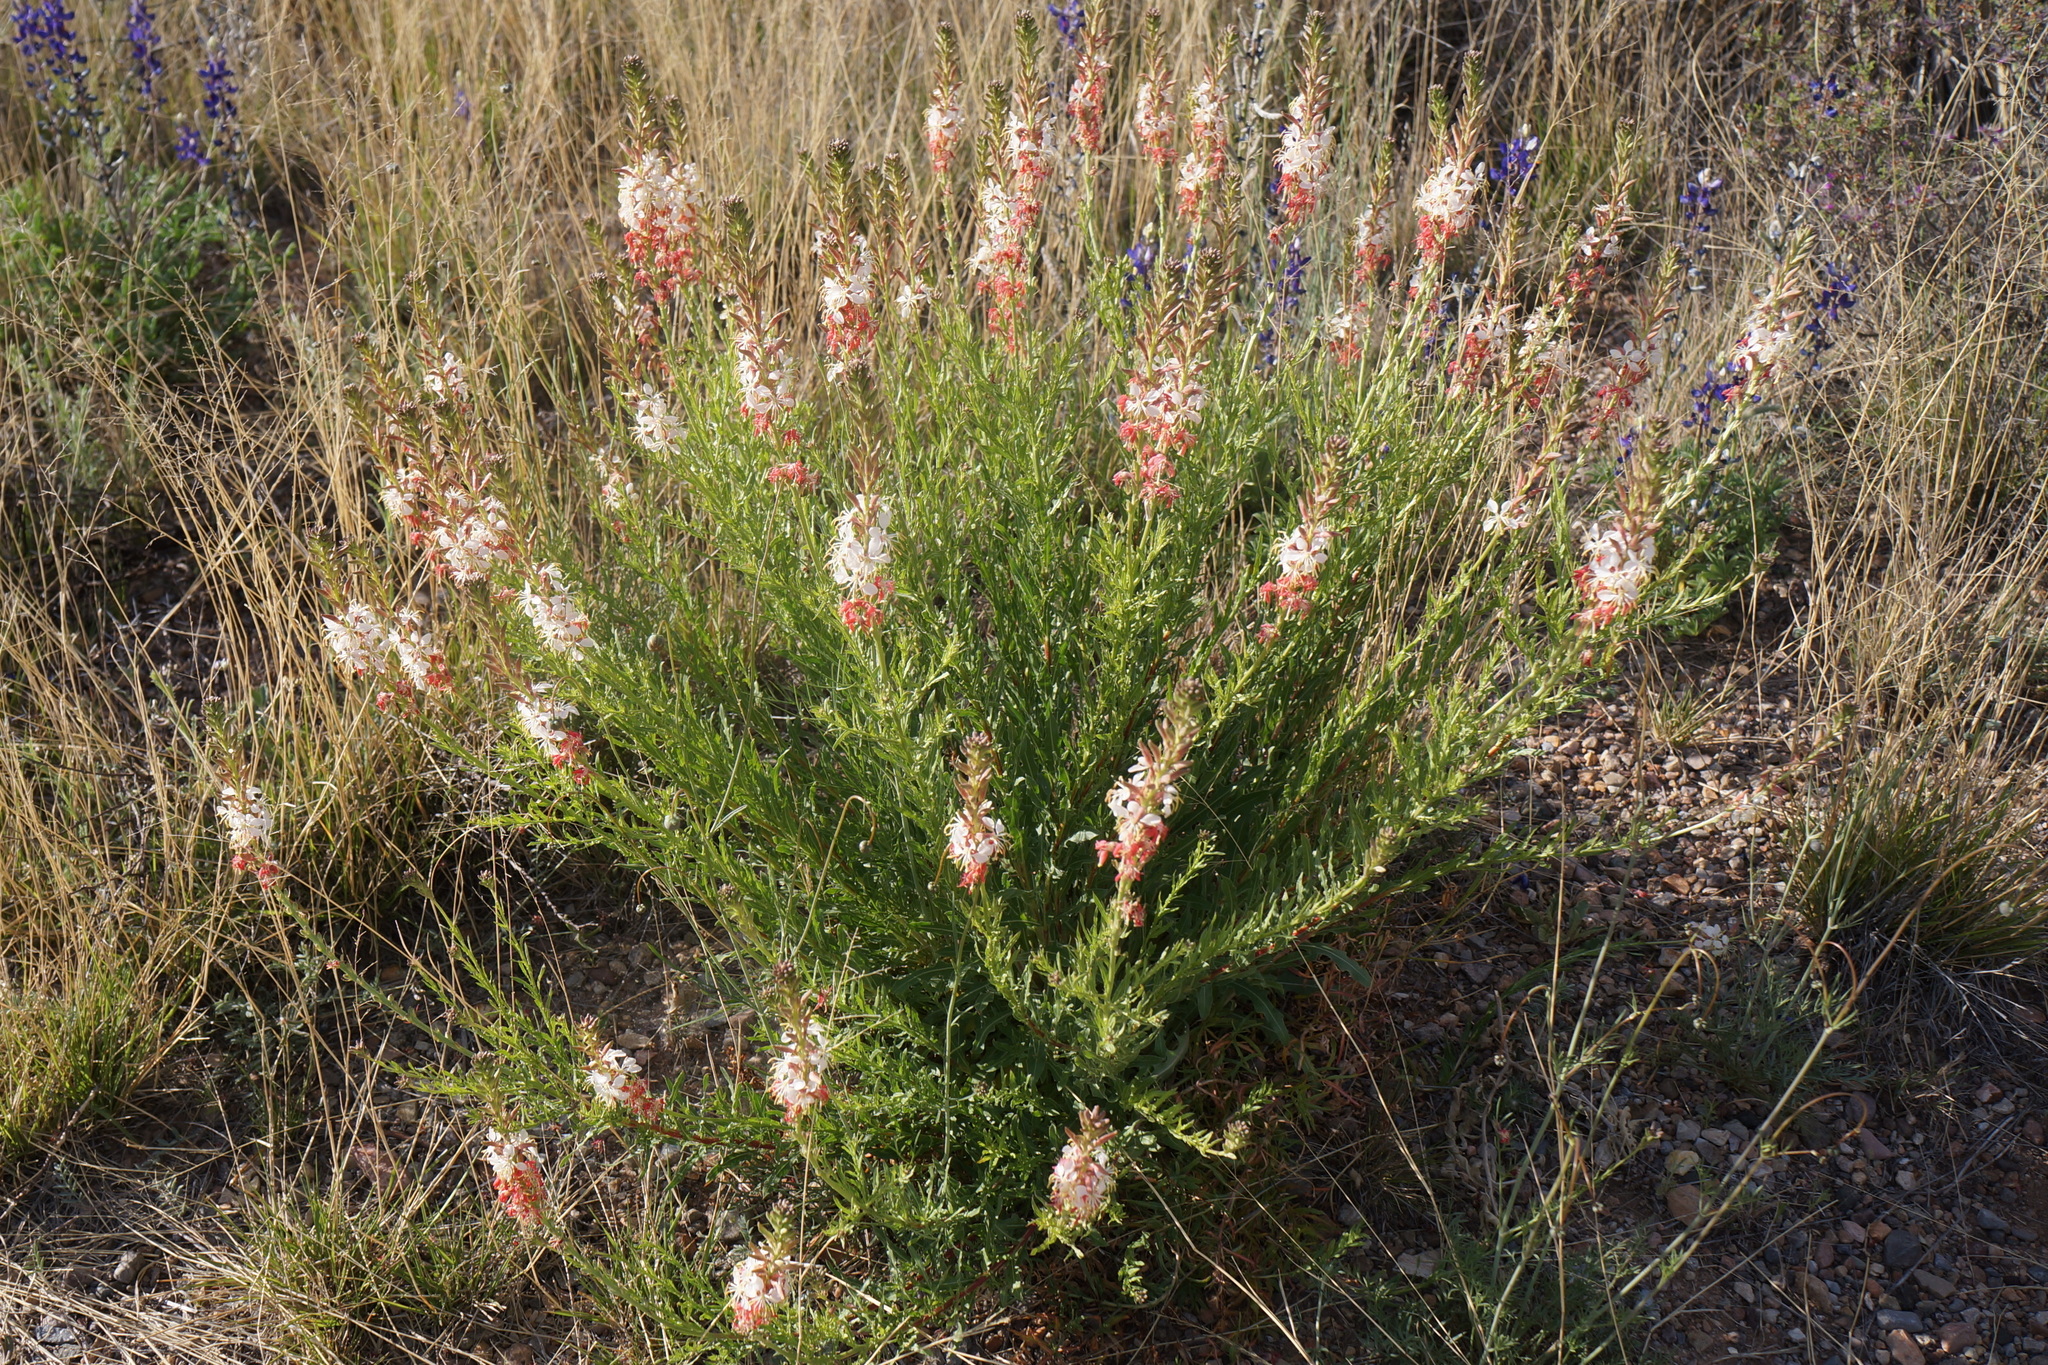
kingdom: Plantae
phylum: Tracheophyta
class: Magnoliopsida
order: Myrtales
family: Onagraceae
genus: Oenothera
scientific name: Oenothera suffrutescens
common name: Scarlet beeblossom
